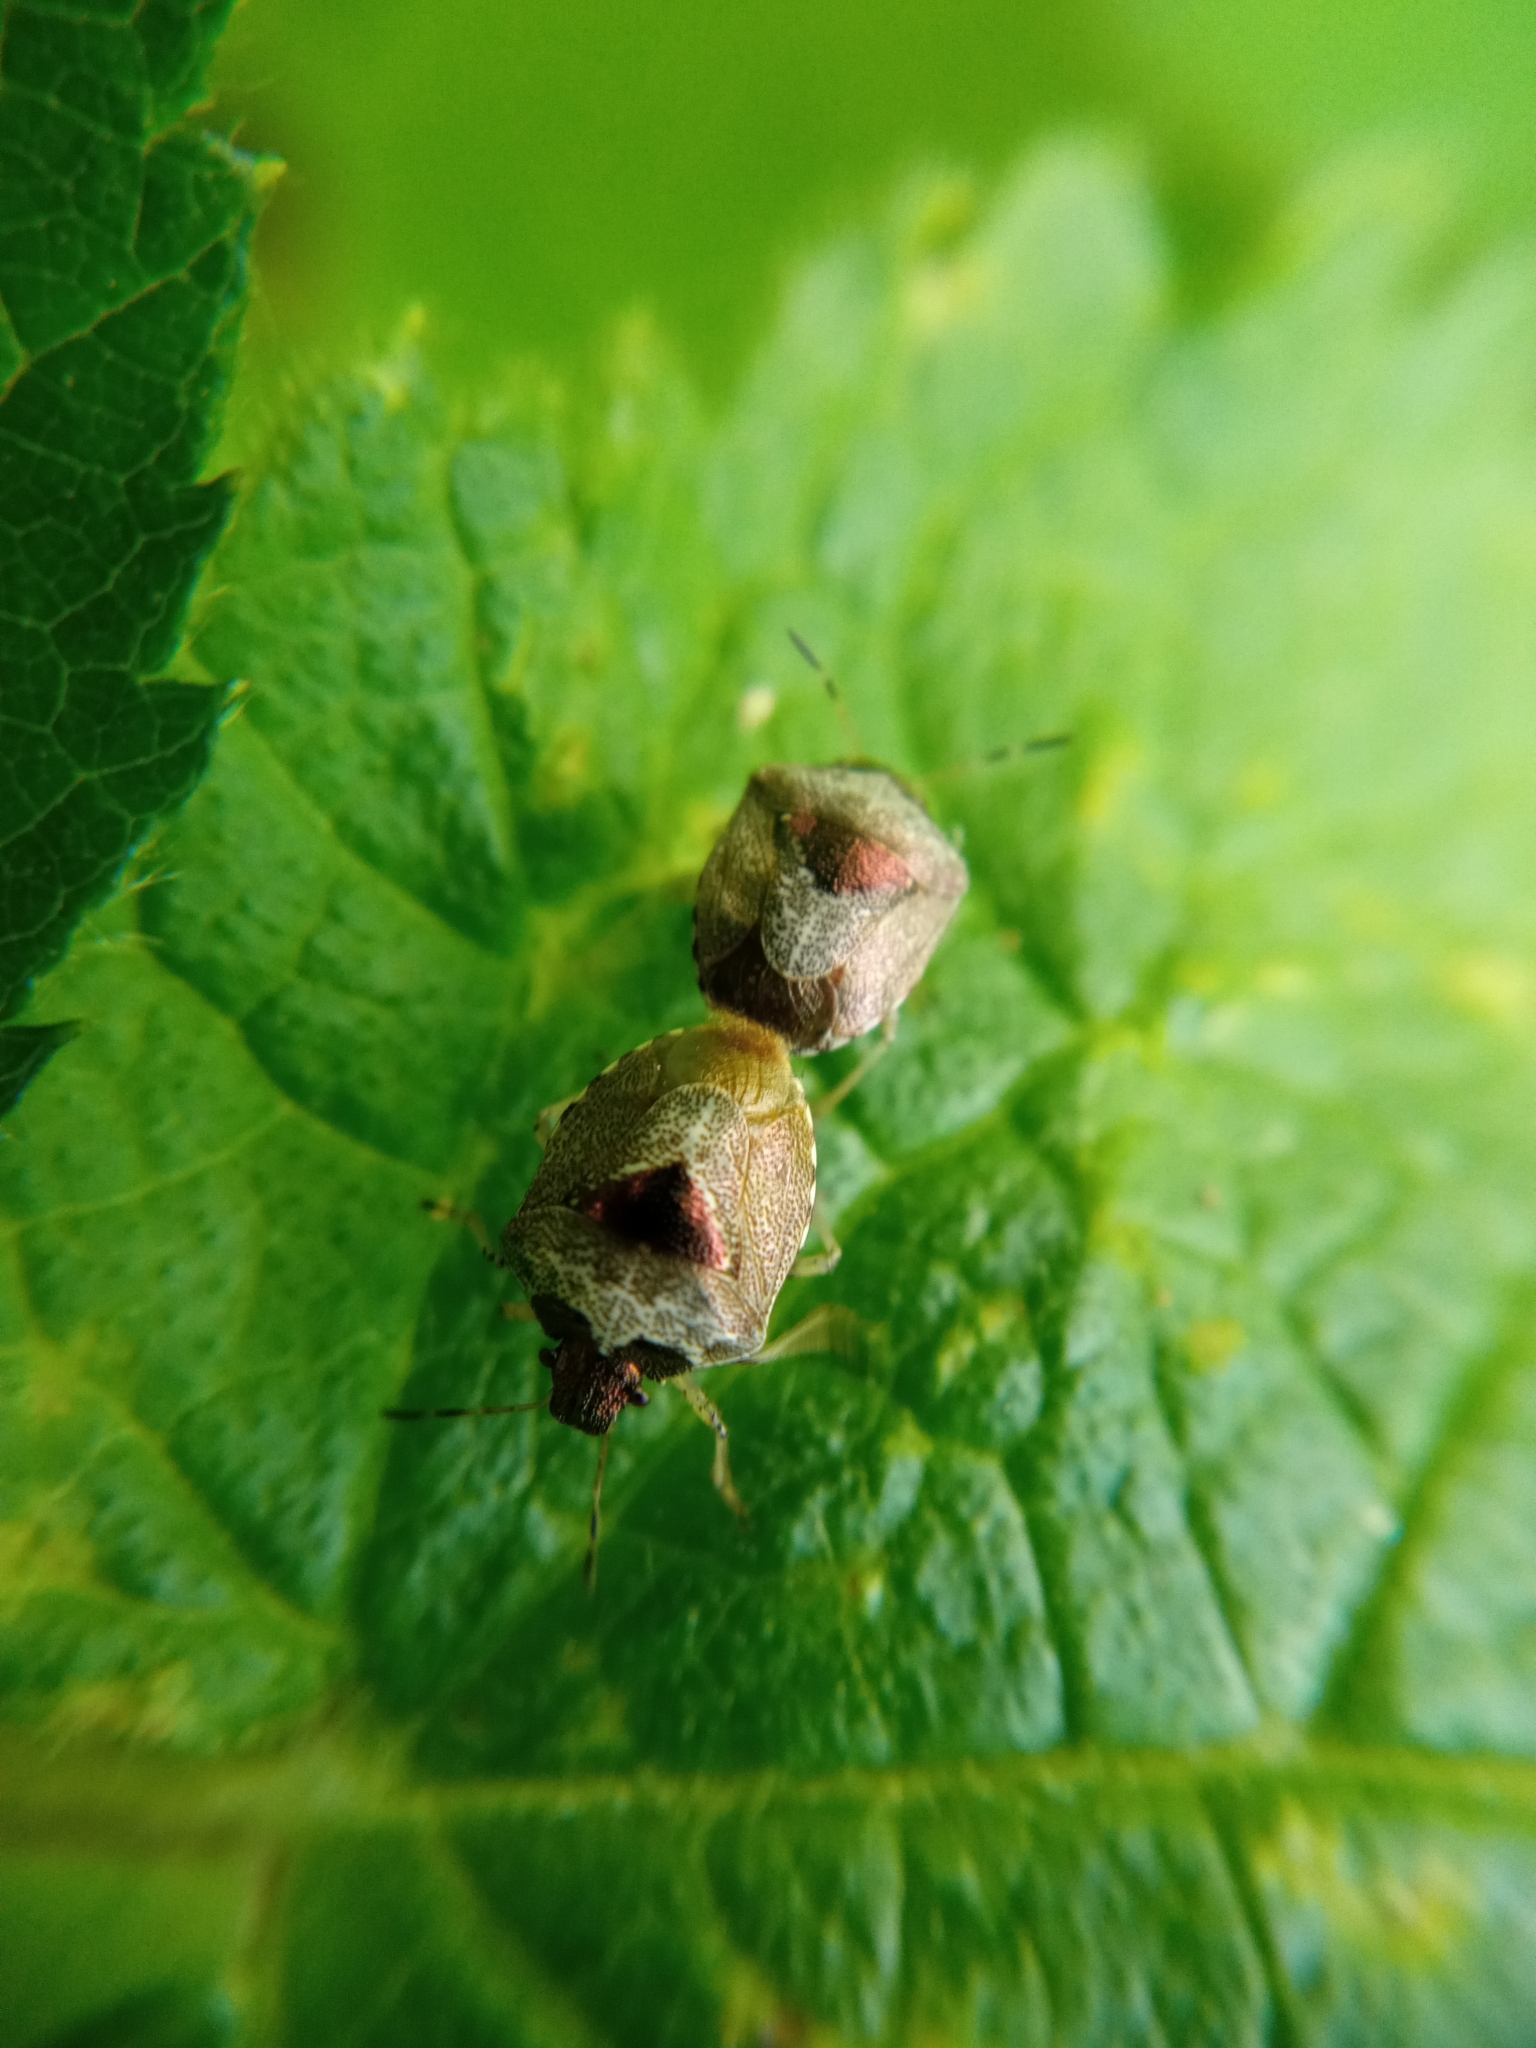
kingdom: Animalia
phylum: Arthropoda
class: Insecta
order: Hemiptera
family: Pentatomidae
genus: Eysarcoris
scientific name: Eysarcoris venustissimus
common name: Woundwort shieldbug
